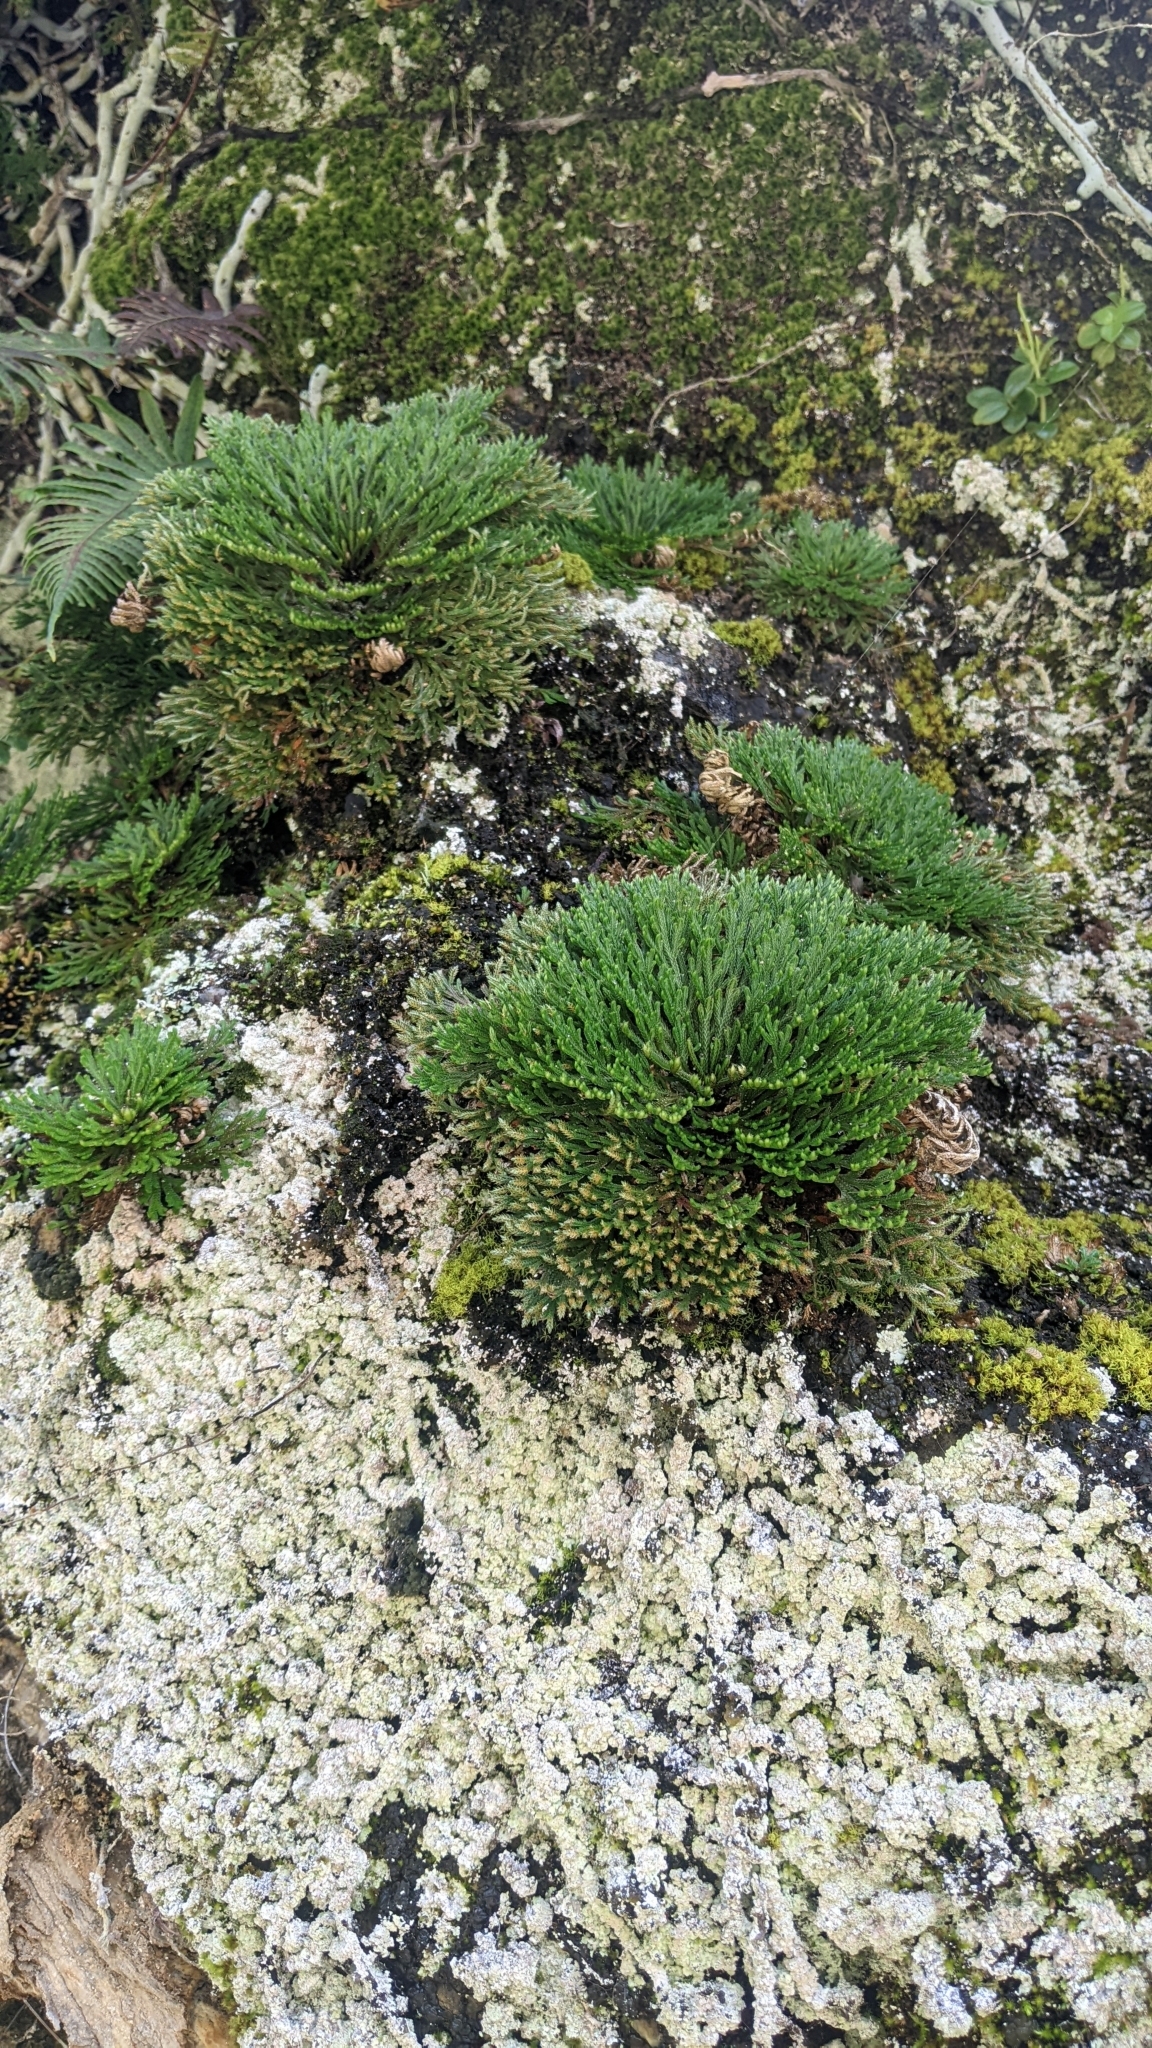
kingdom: Plantae
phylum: Tracheophyta
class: Lycopodiopsida
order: Selaginellales
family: Selaginellaceae
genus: Selaginella
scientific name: Selaginella tamariscina
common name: Little-club-moss
